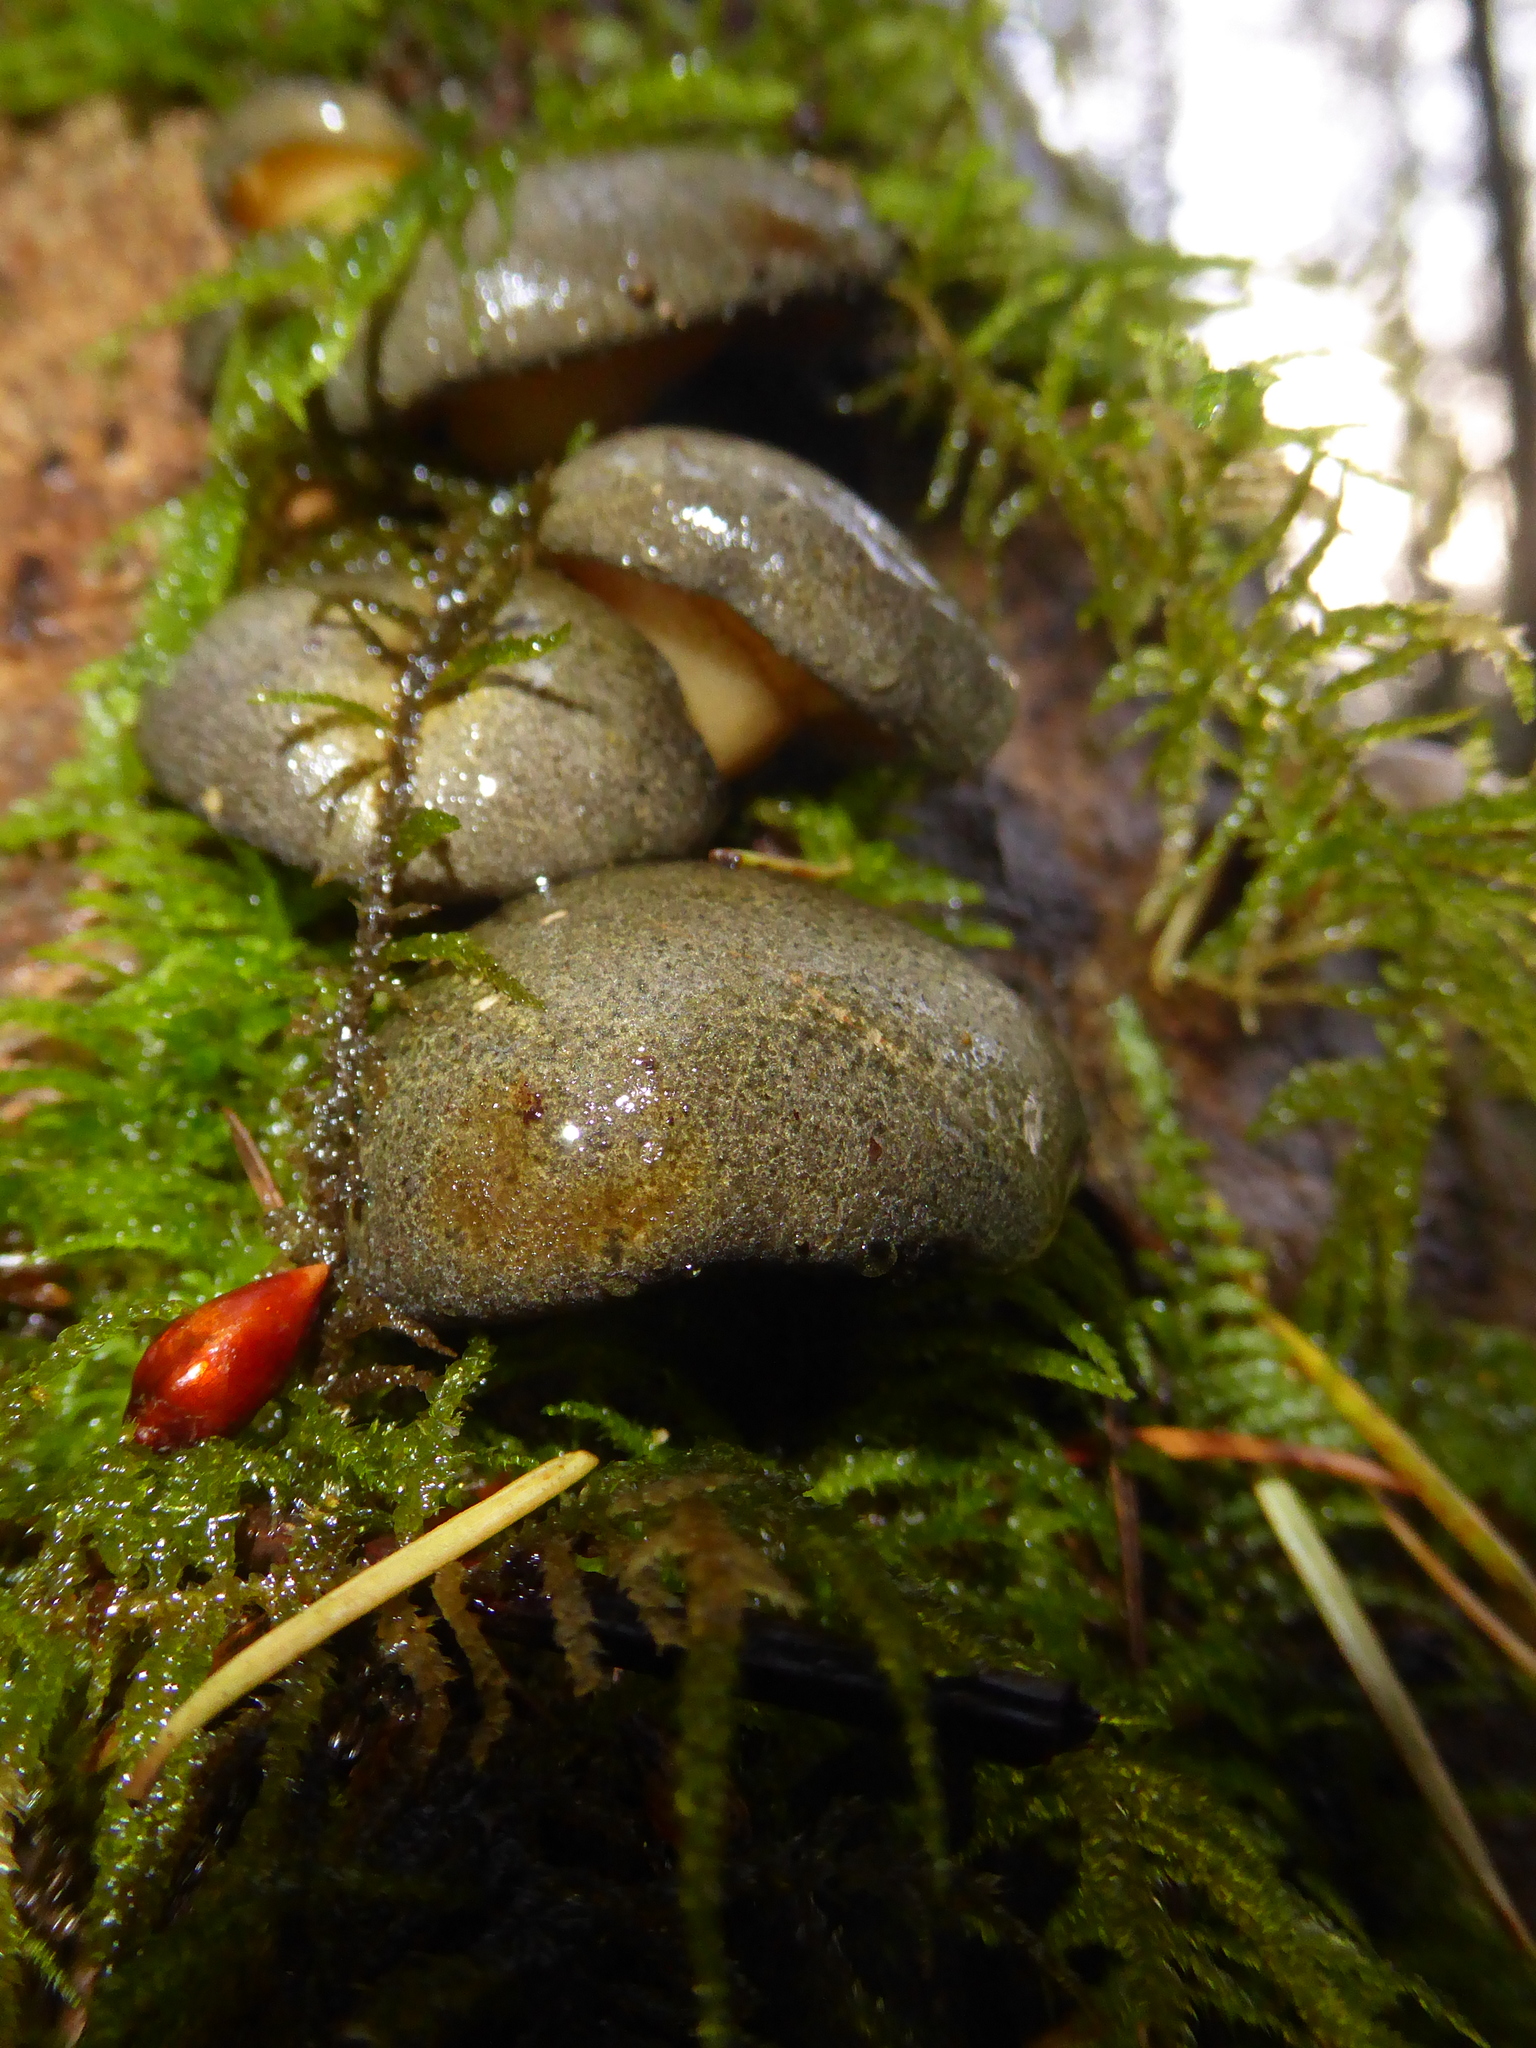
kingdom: Fungi
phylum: Basidiomycota
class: Agaricomycetes
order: Agaricales
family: Sarcomyxaceae
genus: Sarcomyxa
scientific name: Sarcomyxa serotina
